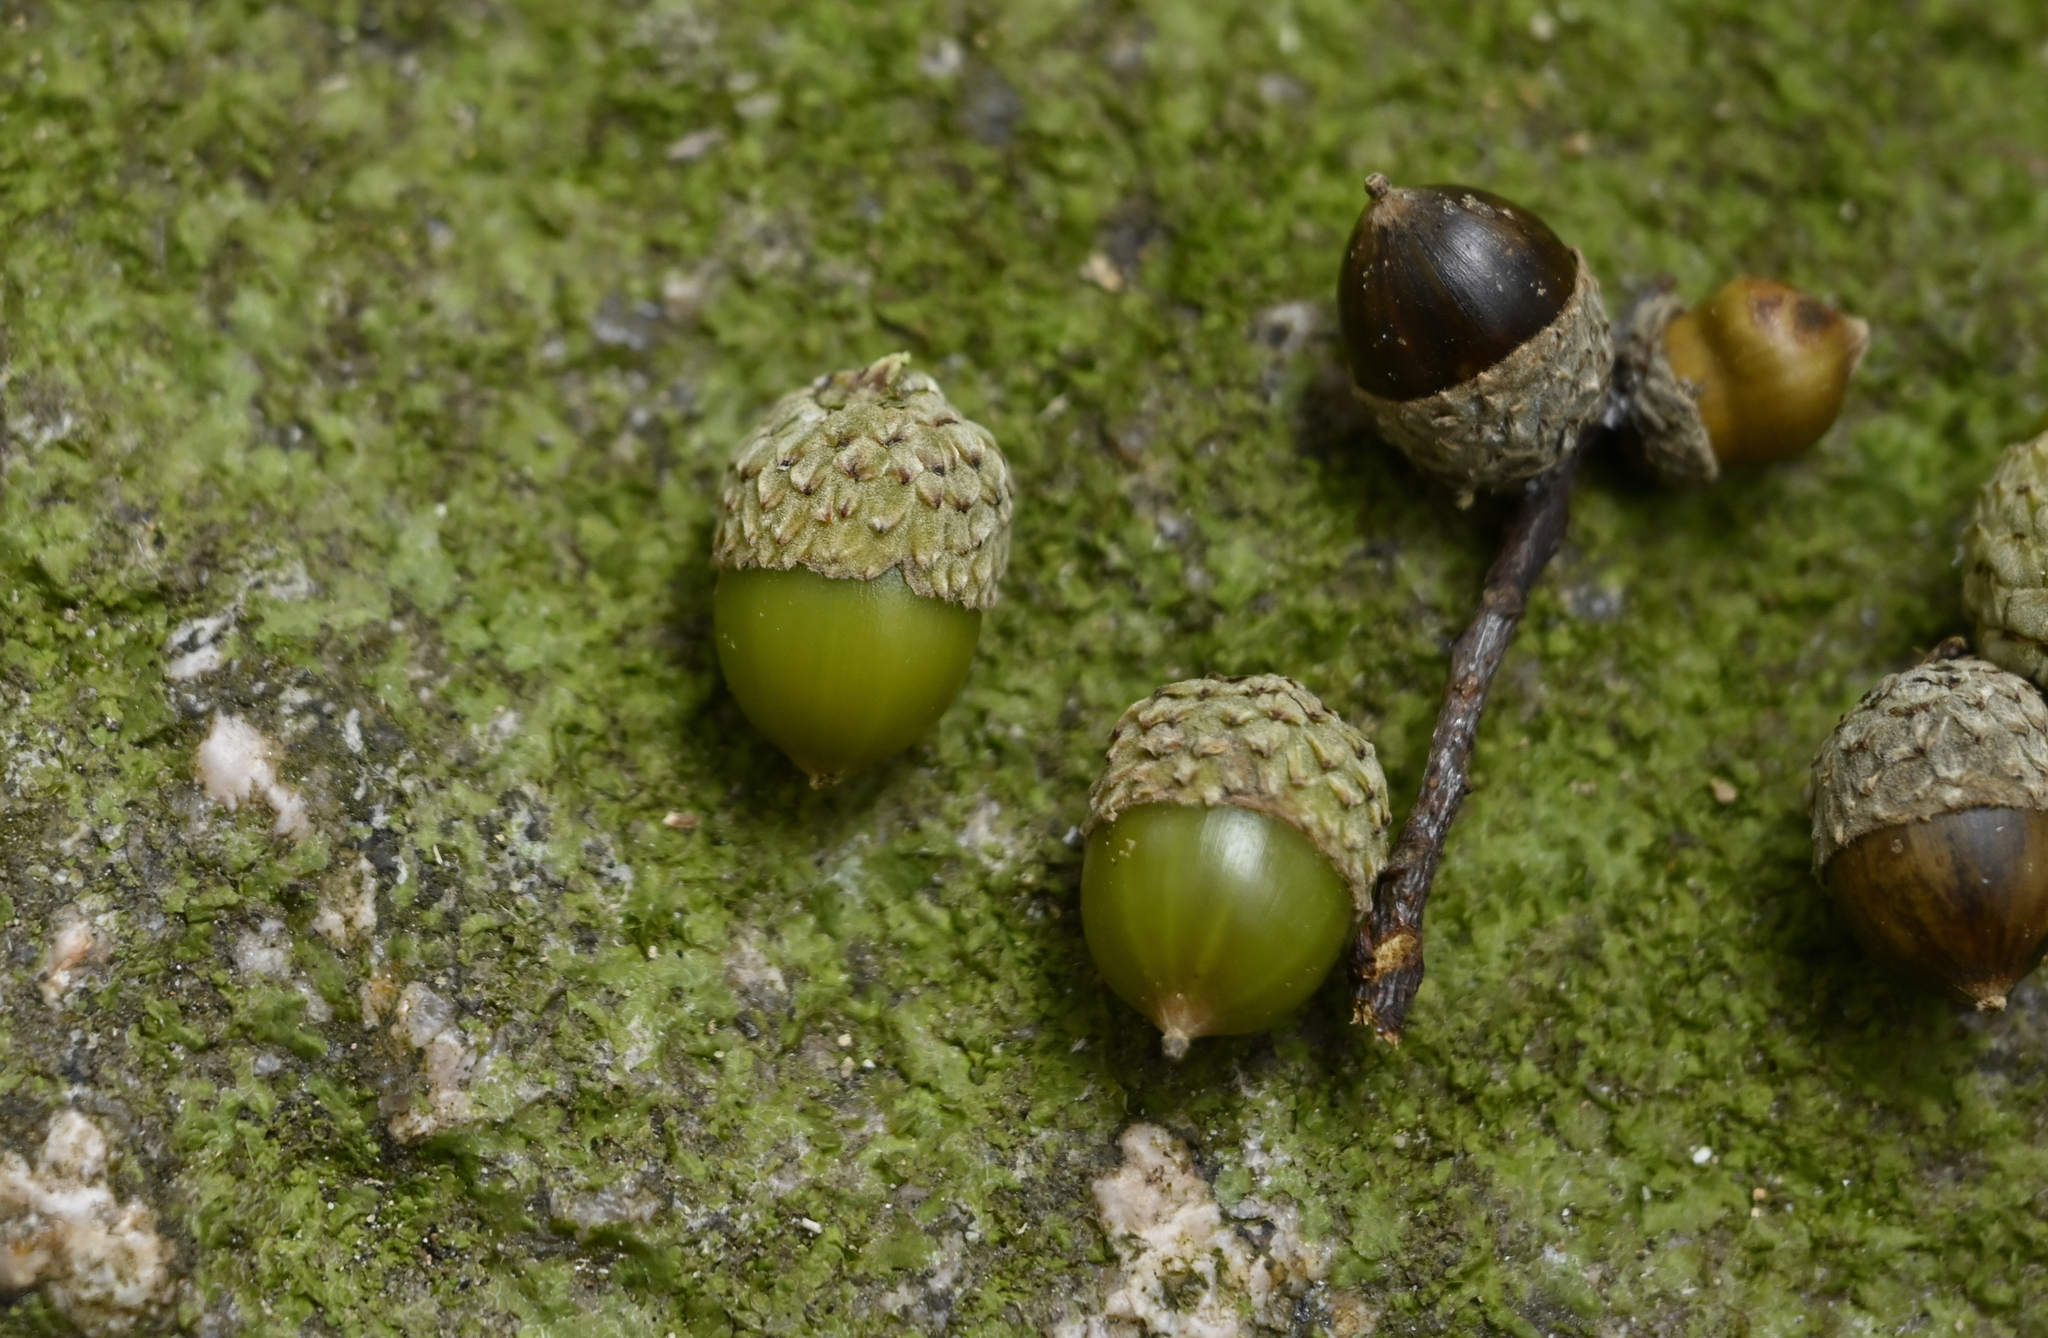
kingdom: Plantae
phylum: Tracheophyta
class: Magnoliopsida
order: Fagales
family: Fagaceae
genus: Lithocarpus
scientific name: Lithocarpus uraianus
